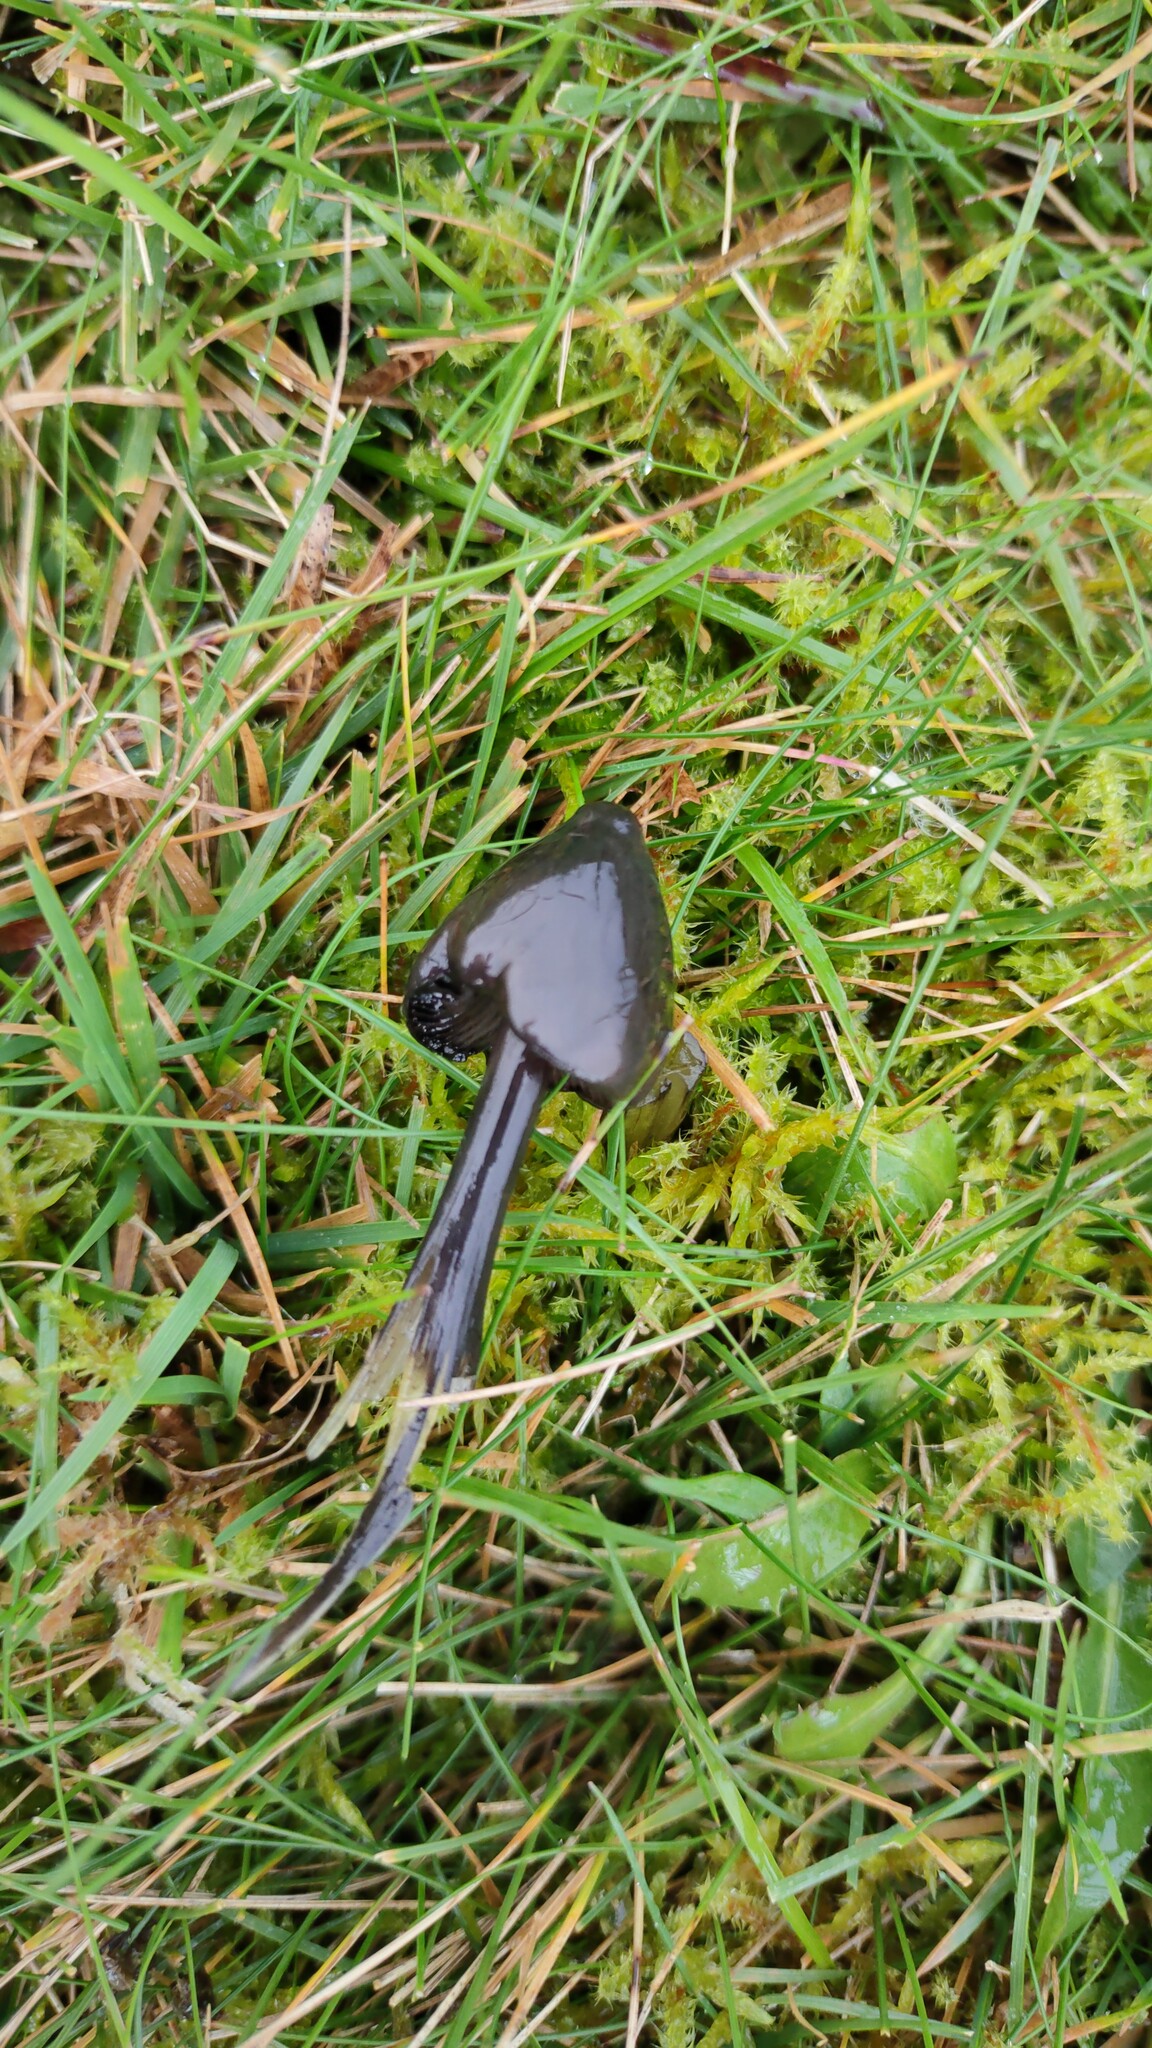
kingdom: Fungi
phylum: Basidiomycota
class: Agaricomycetes
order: Agaricales
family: Hygrophoraceae
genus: Hygrocybe
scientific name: Hygrocybe conica
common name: Blackening wax-cap
